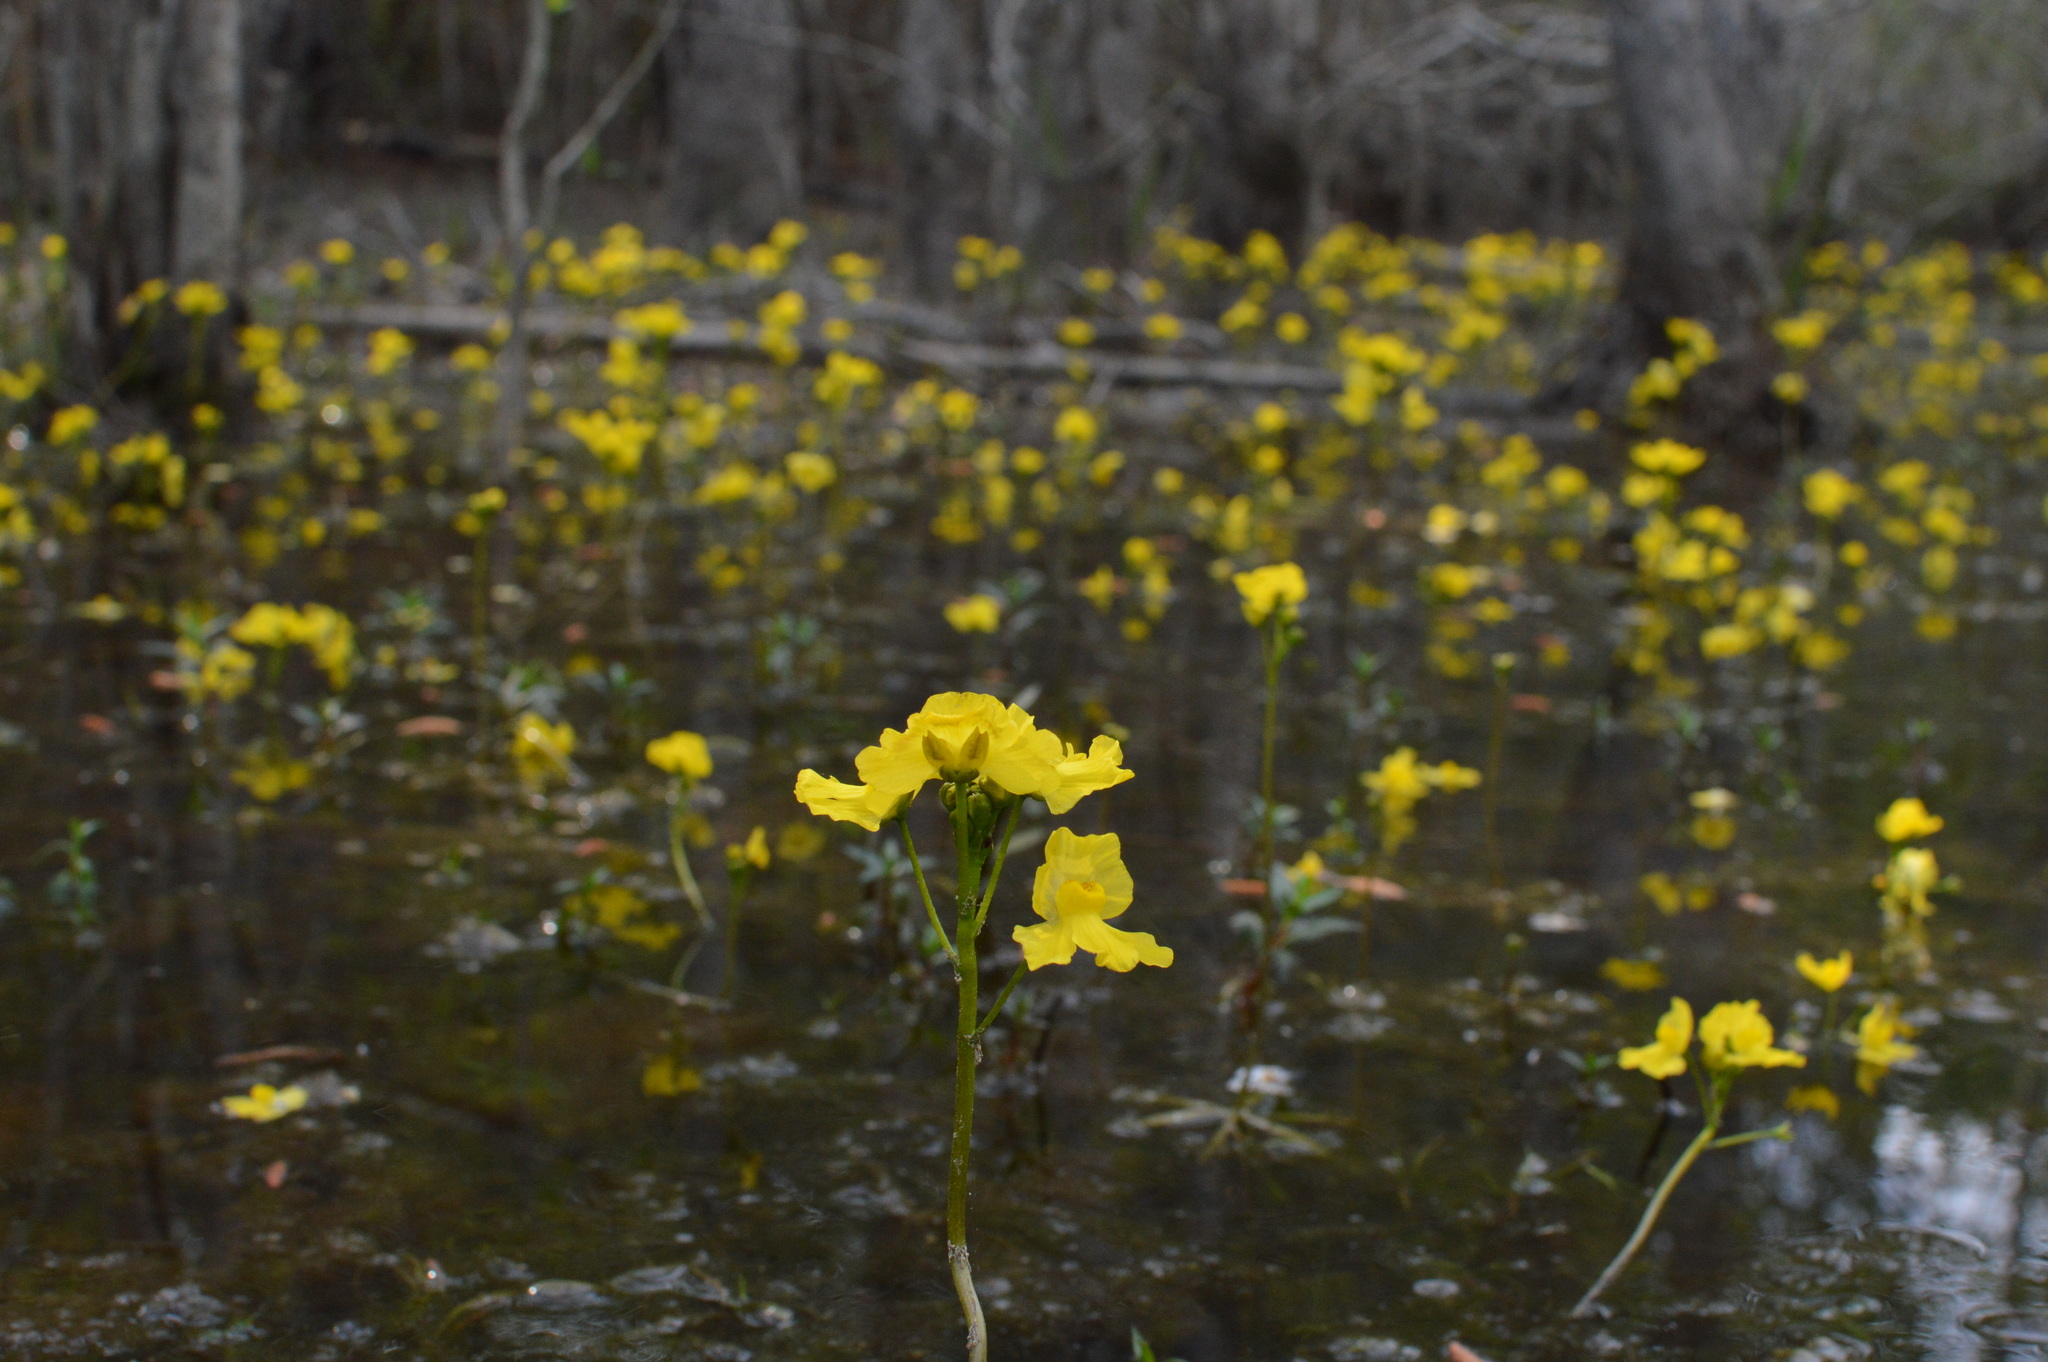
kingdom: Plantae
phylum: Tracheophyta
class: Magnoliopsida
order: Lamiales
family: Lentibulariaceae
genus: Utricularia
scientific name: Utricularia inflata
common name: Floating bladderwort
